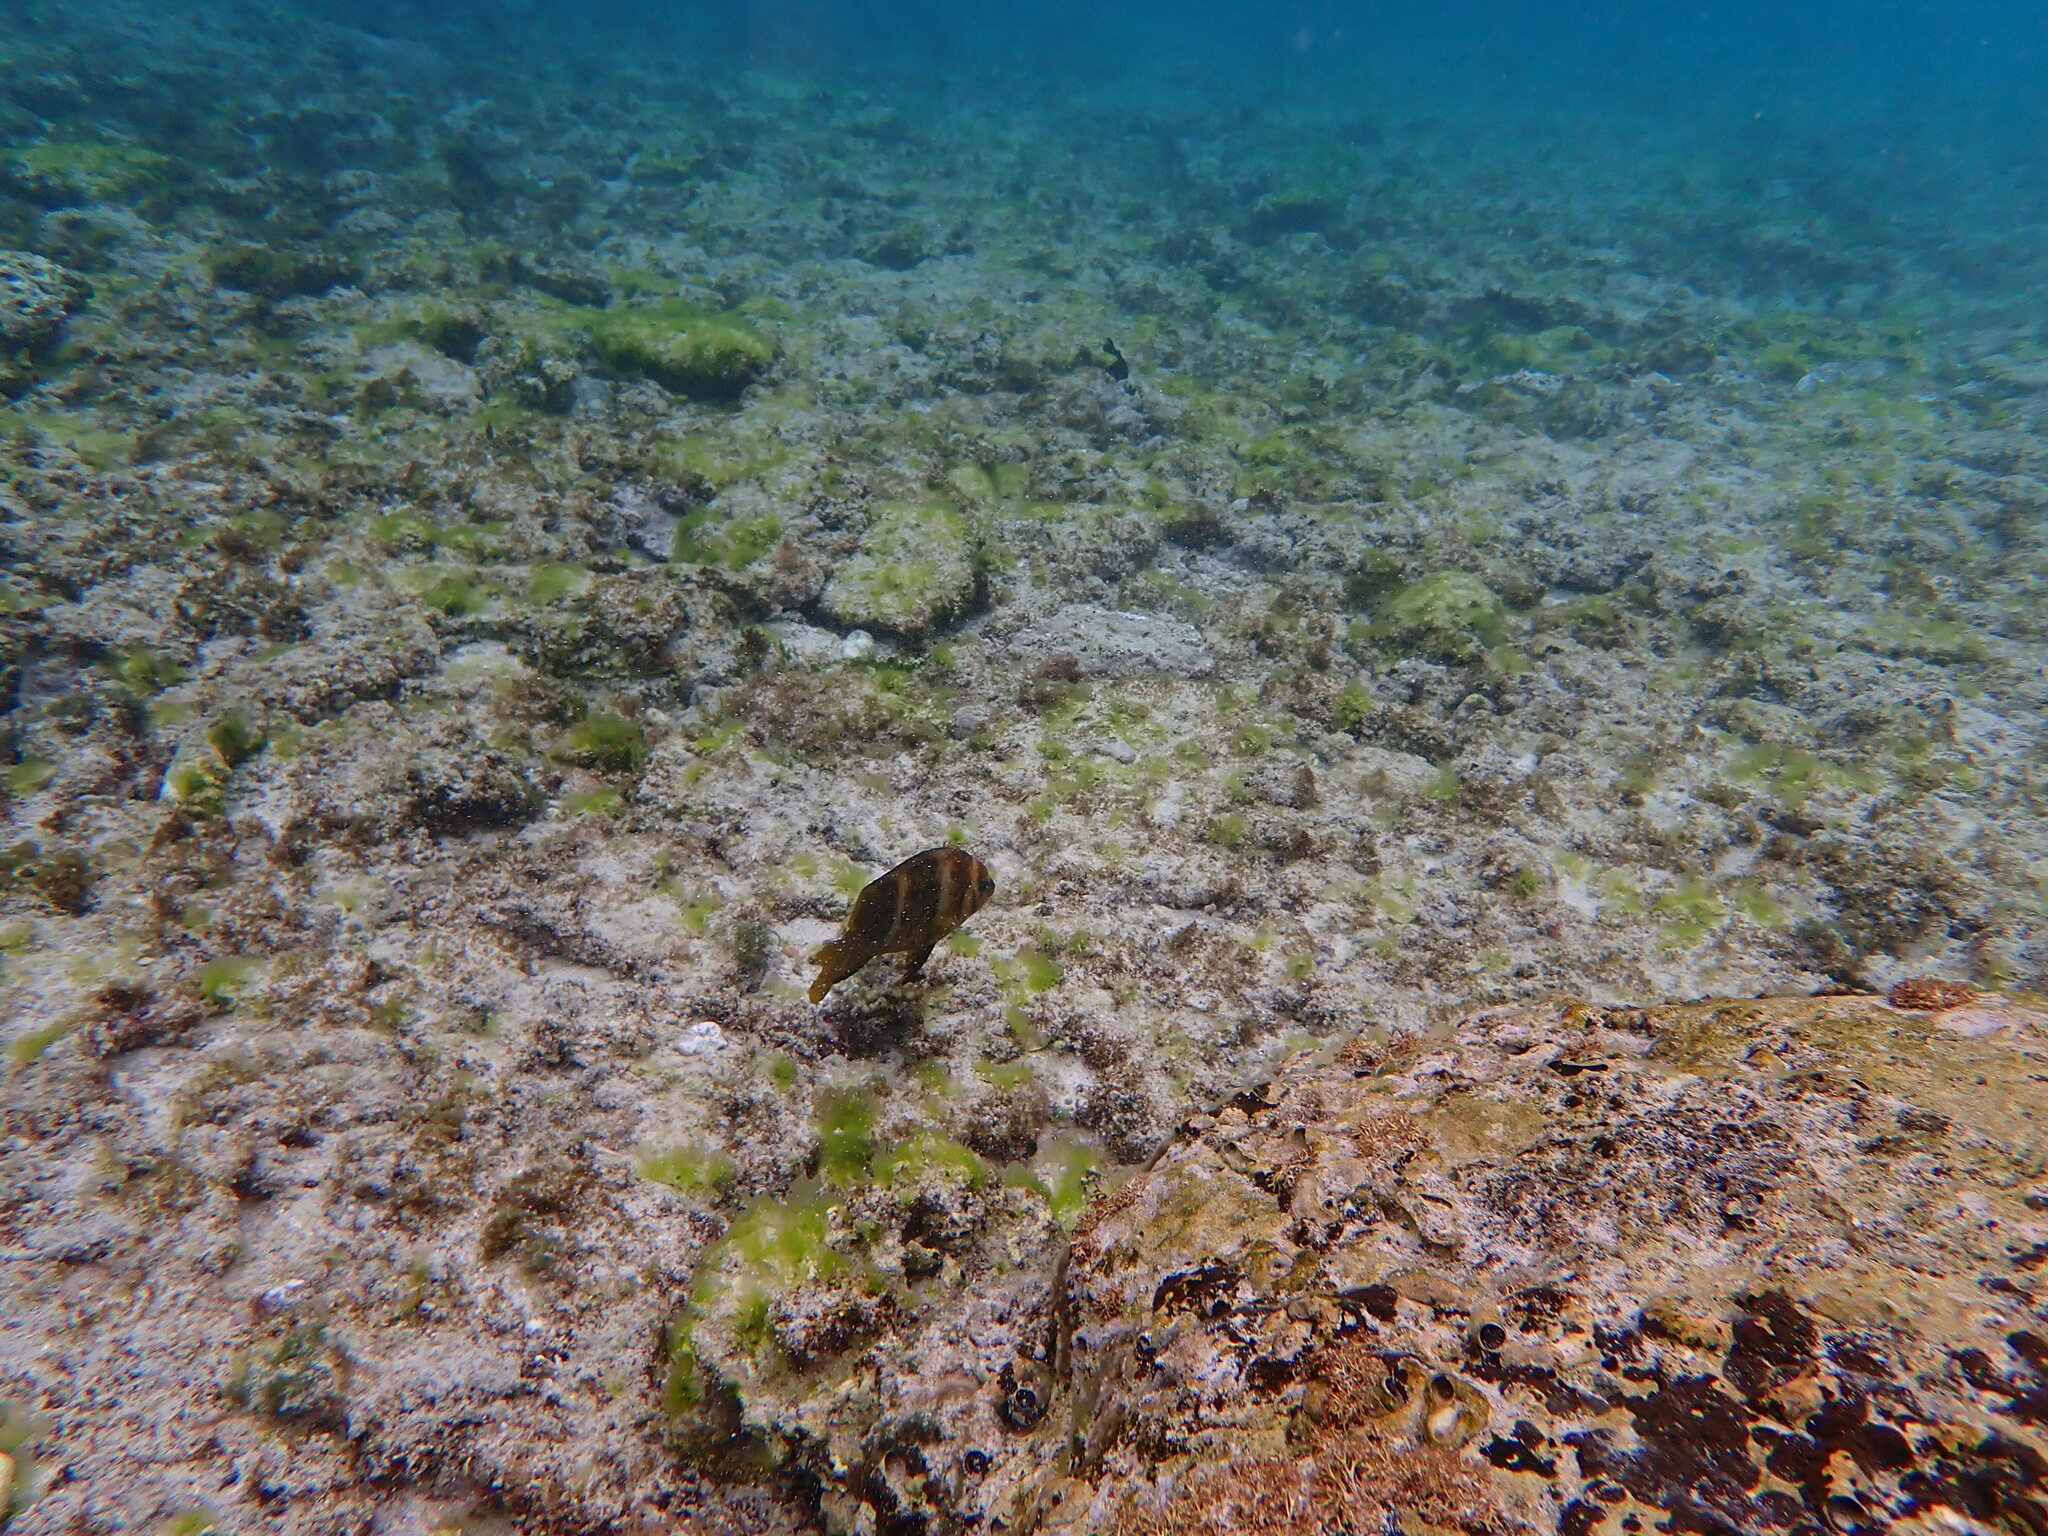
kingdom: Animalia
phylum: Chordata
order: Perciformes
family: Pomacentridae
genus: Parma
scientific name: Parma polylepis
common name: Banded parma
